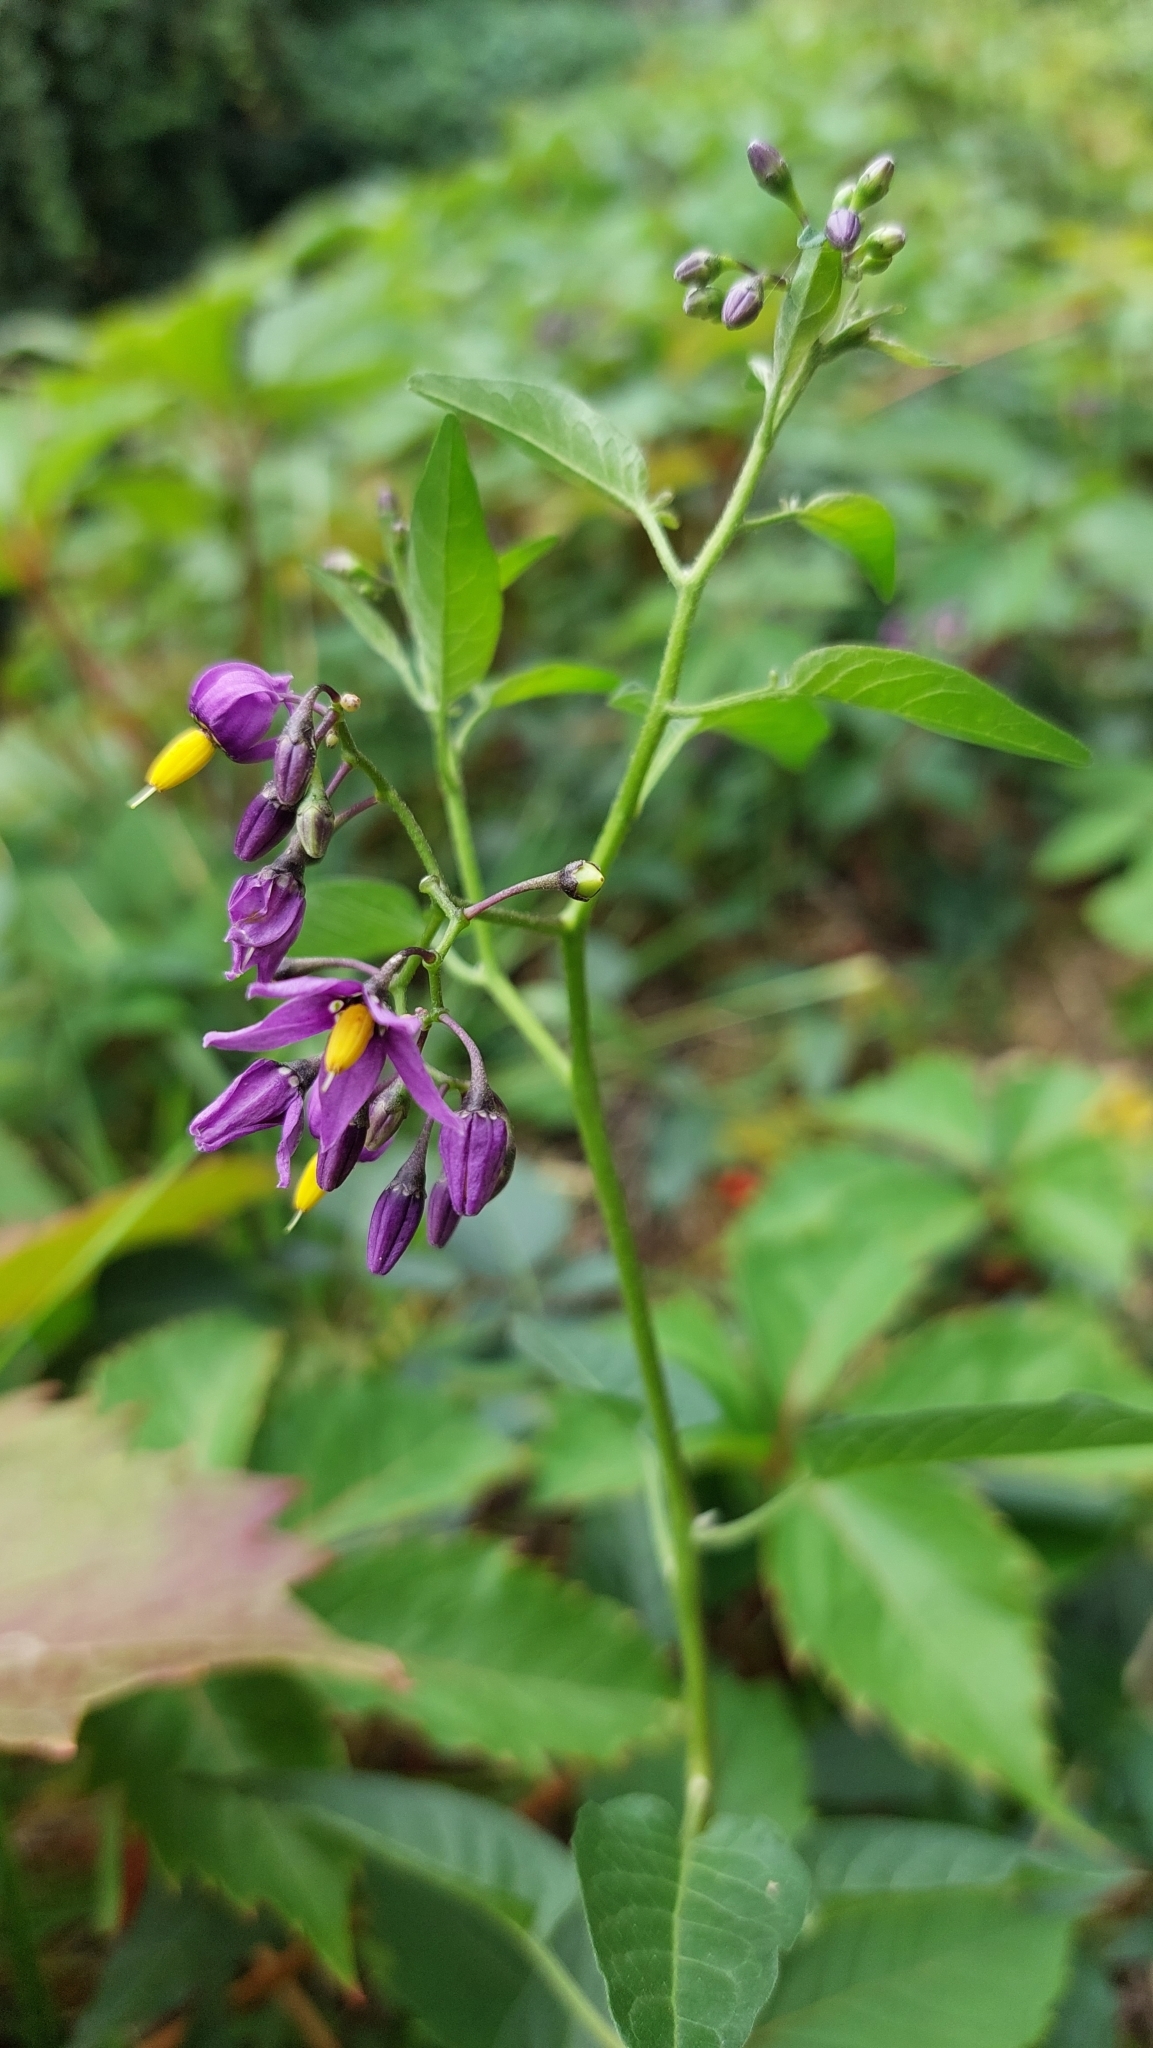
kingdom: Plantae
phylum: Tracheophyta
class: Magnoliopsida
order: Solanales
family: Solanaceae
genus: Solanum
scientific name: Solanum dulcamara
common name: Climbing nightshade
